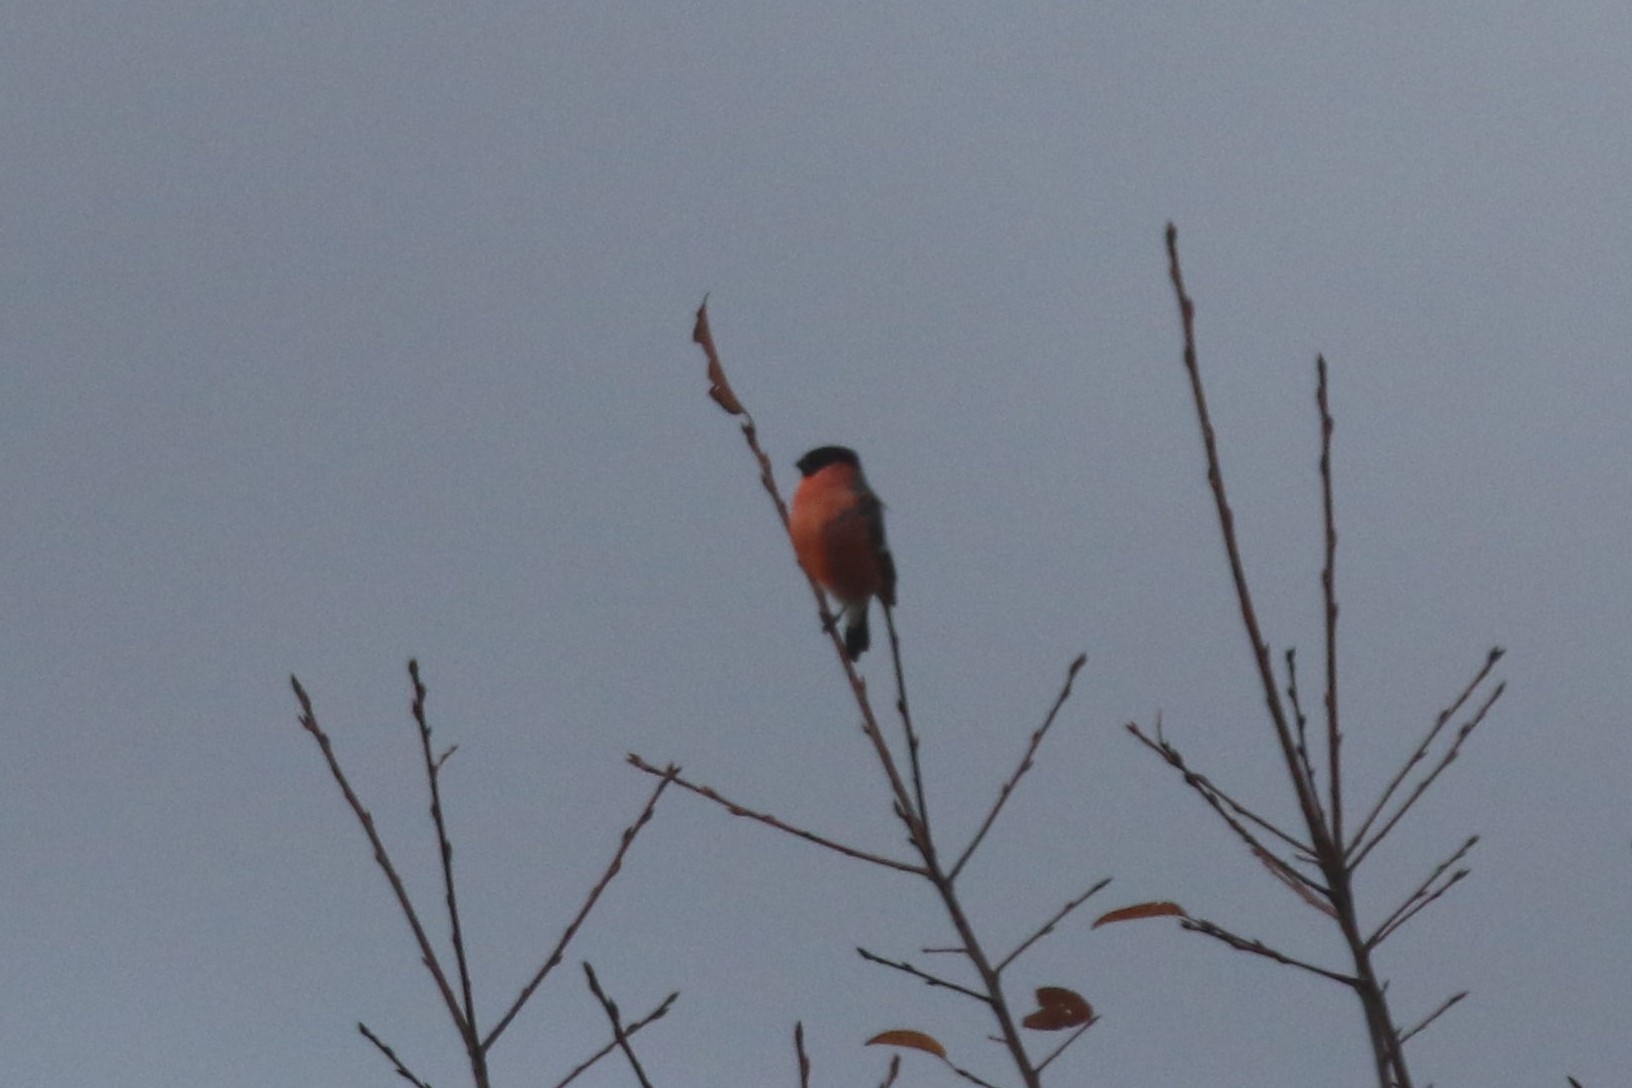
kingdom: Animalia
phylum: Chordata
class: Aves
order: Passeriformes
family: Fringillidae
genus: Pyrrhula
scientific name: Pyrrhula pyrrhula
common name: Eurasian bullfinch
